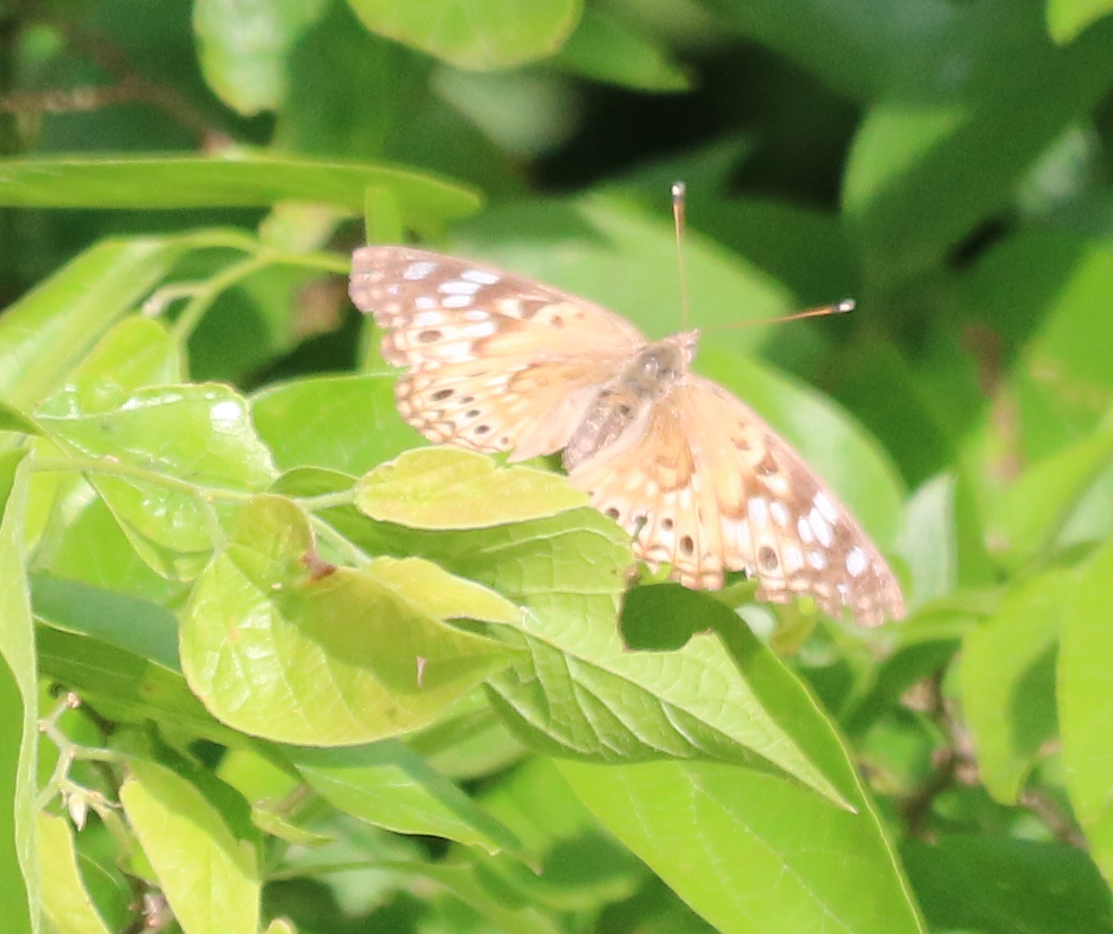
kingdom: Animalia
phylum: Arthropoda
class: Insecta
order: Lepidoptera
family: Nymphalidae
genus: Asterocampa
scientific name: Asterocampa celtis
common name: Hackberry emperor
